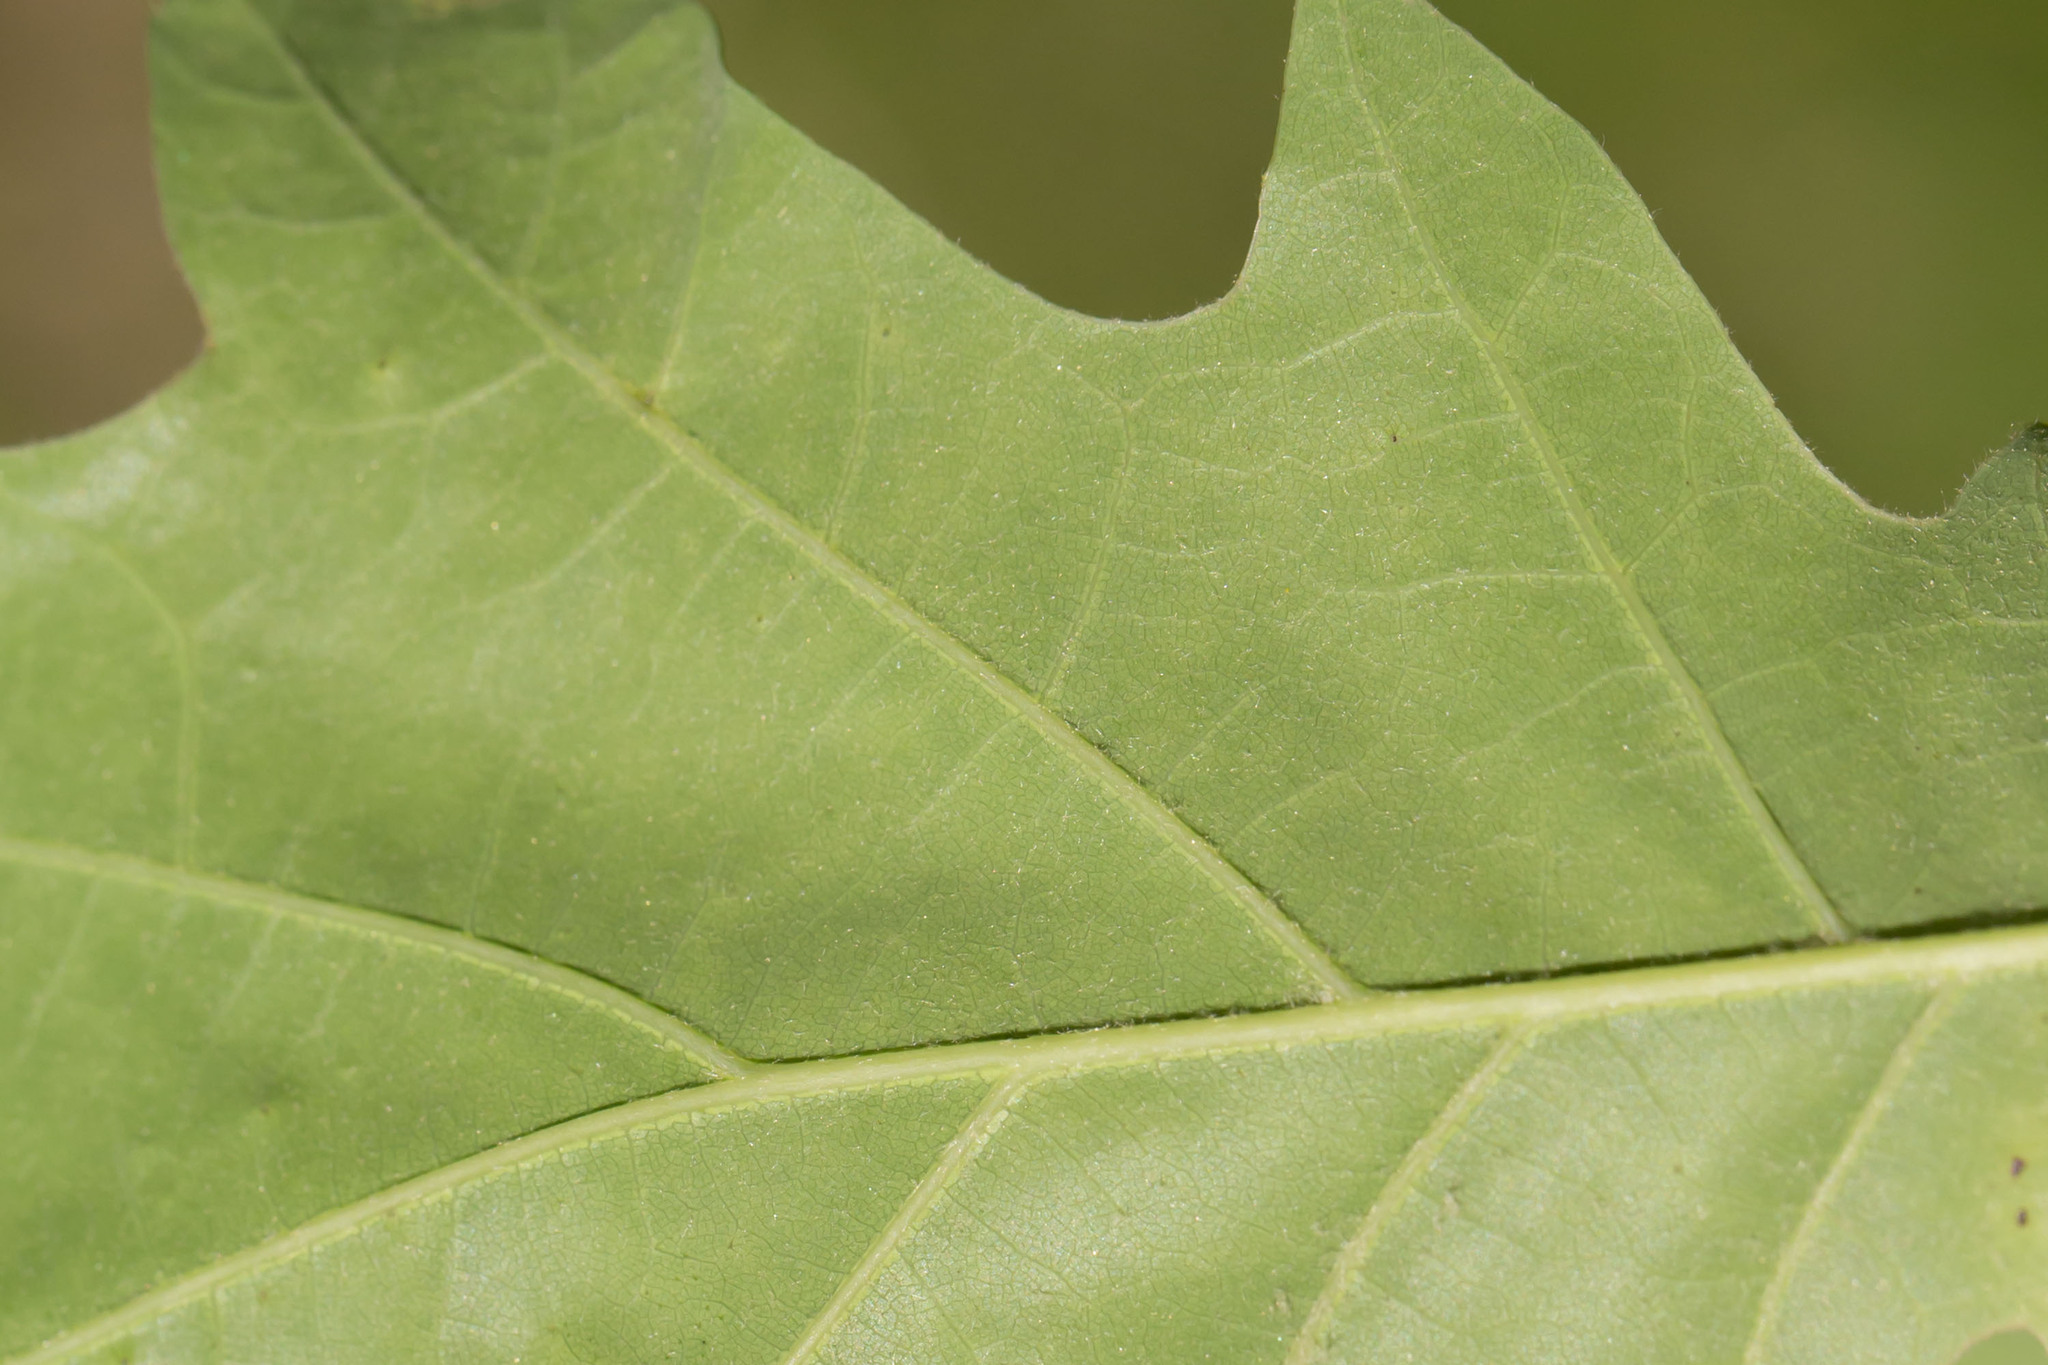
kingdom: Plantae
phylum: Tracheophyta
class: Magnoliopsida
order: Fagales
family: Fagaceae
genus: Quercus
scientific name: Quercus rubra
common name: Red oak
